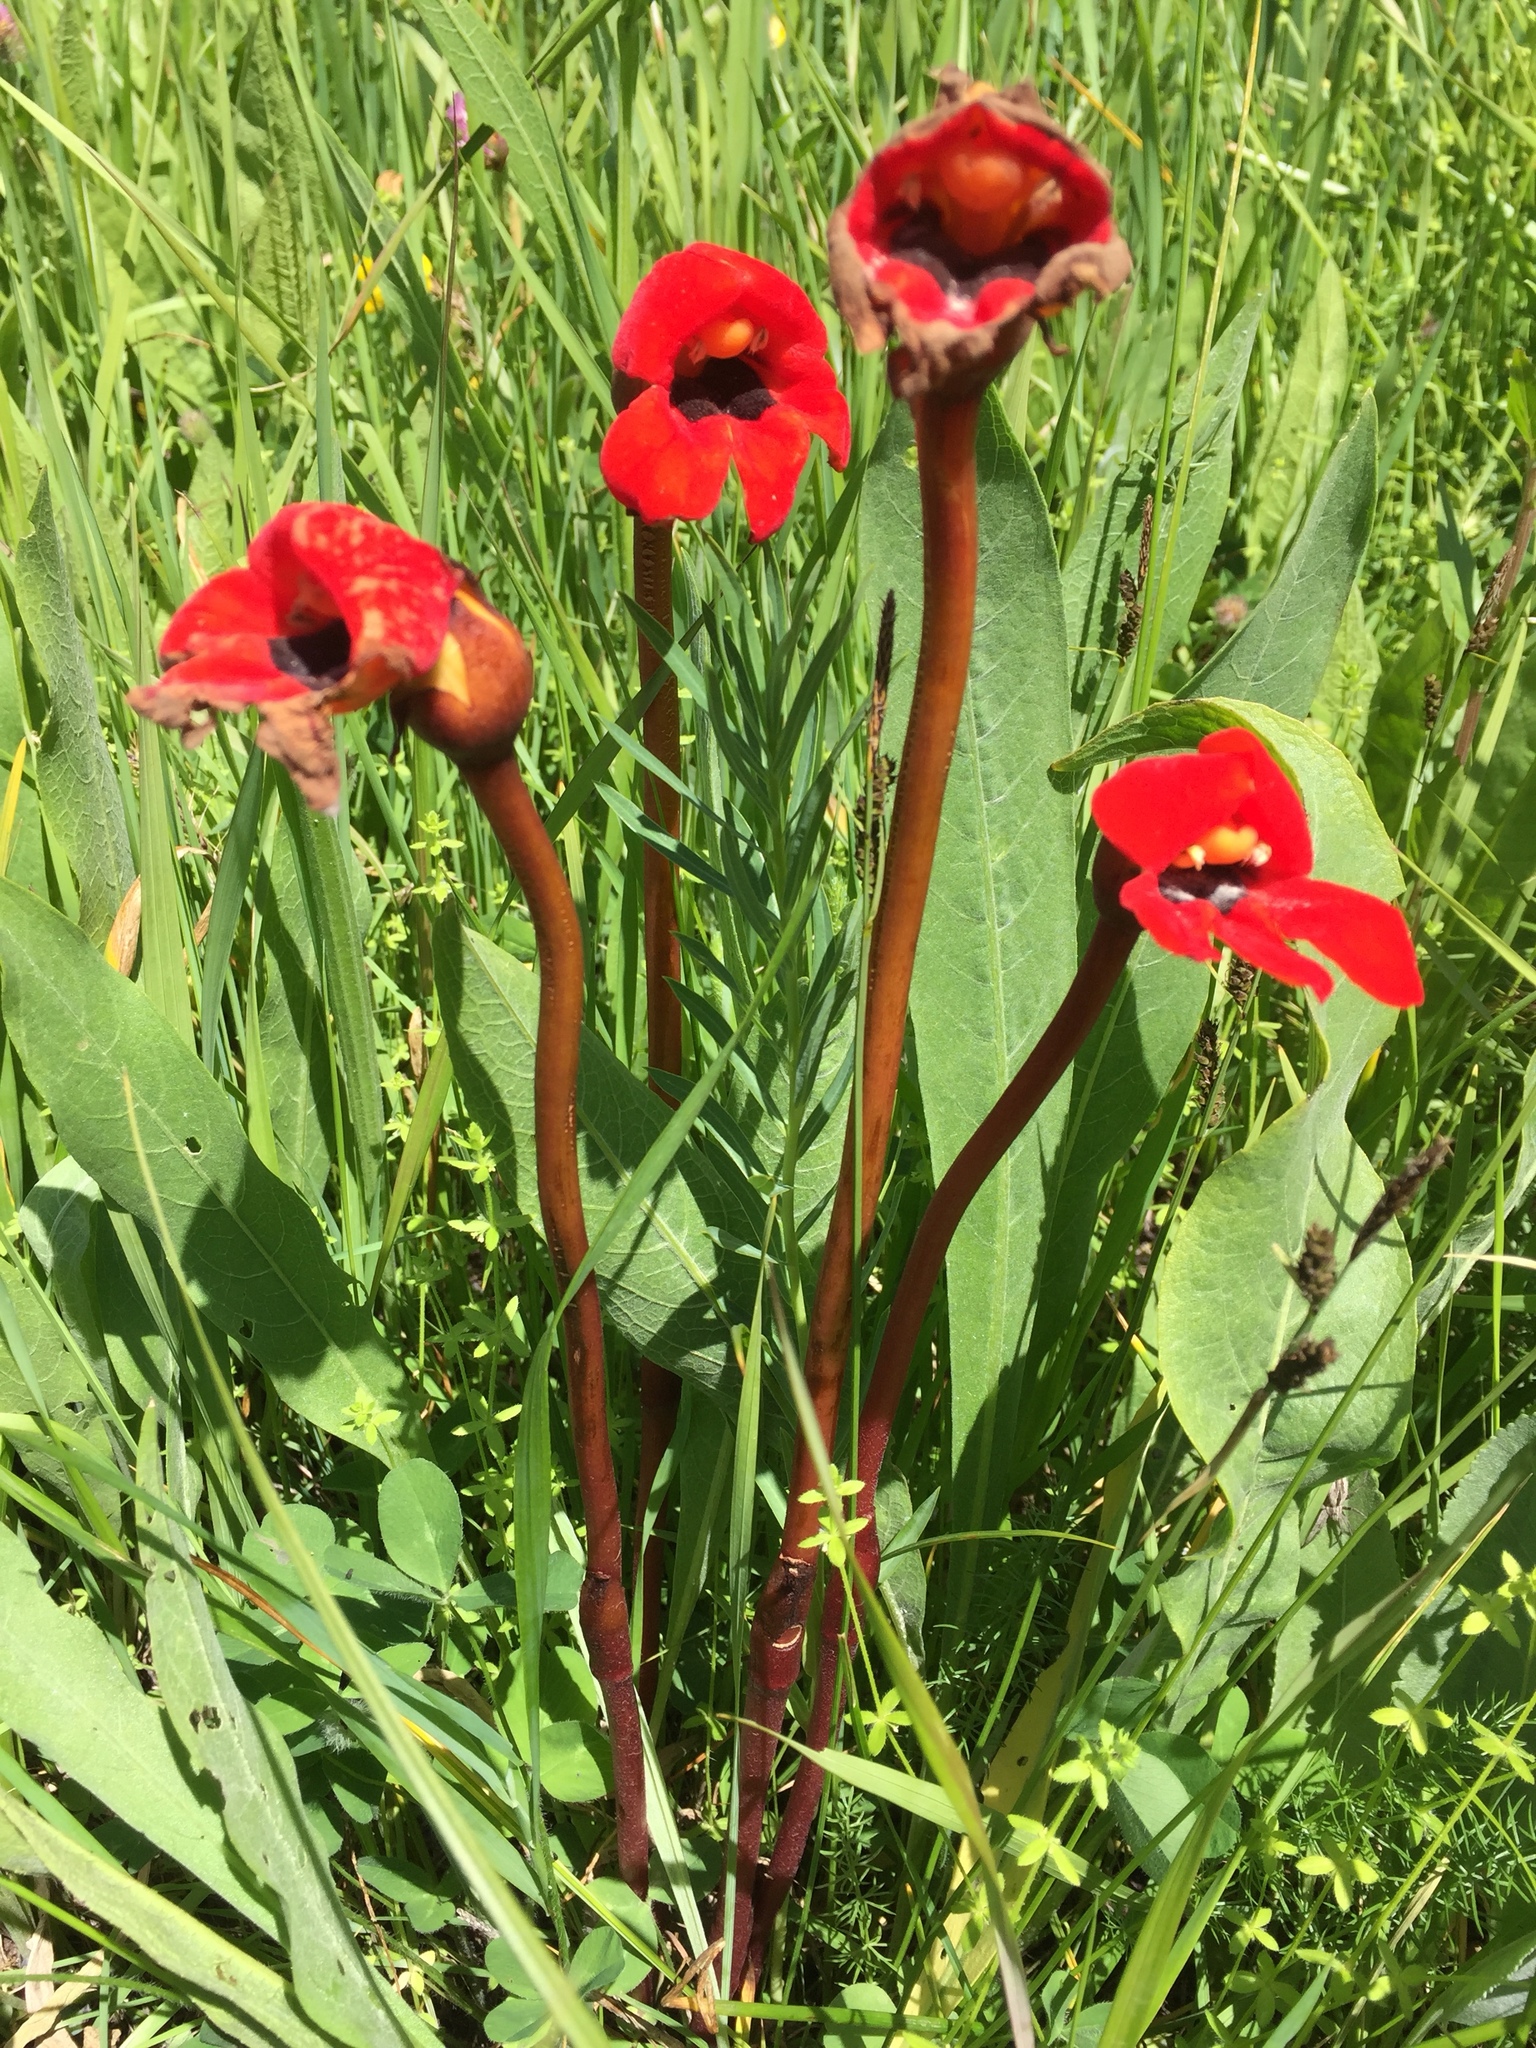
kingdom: Plantae
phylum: Tracheophyta
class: Magnoliopsida
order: Lamiales
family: Orobanchaceae
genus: Diphelypaea
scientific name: Diphelypaea coccinea
